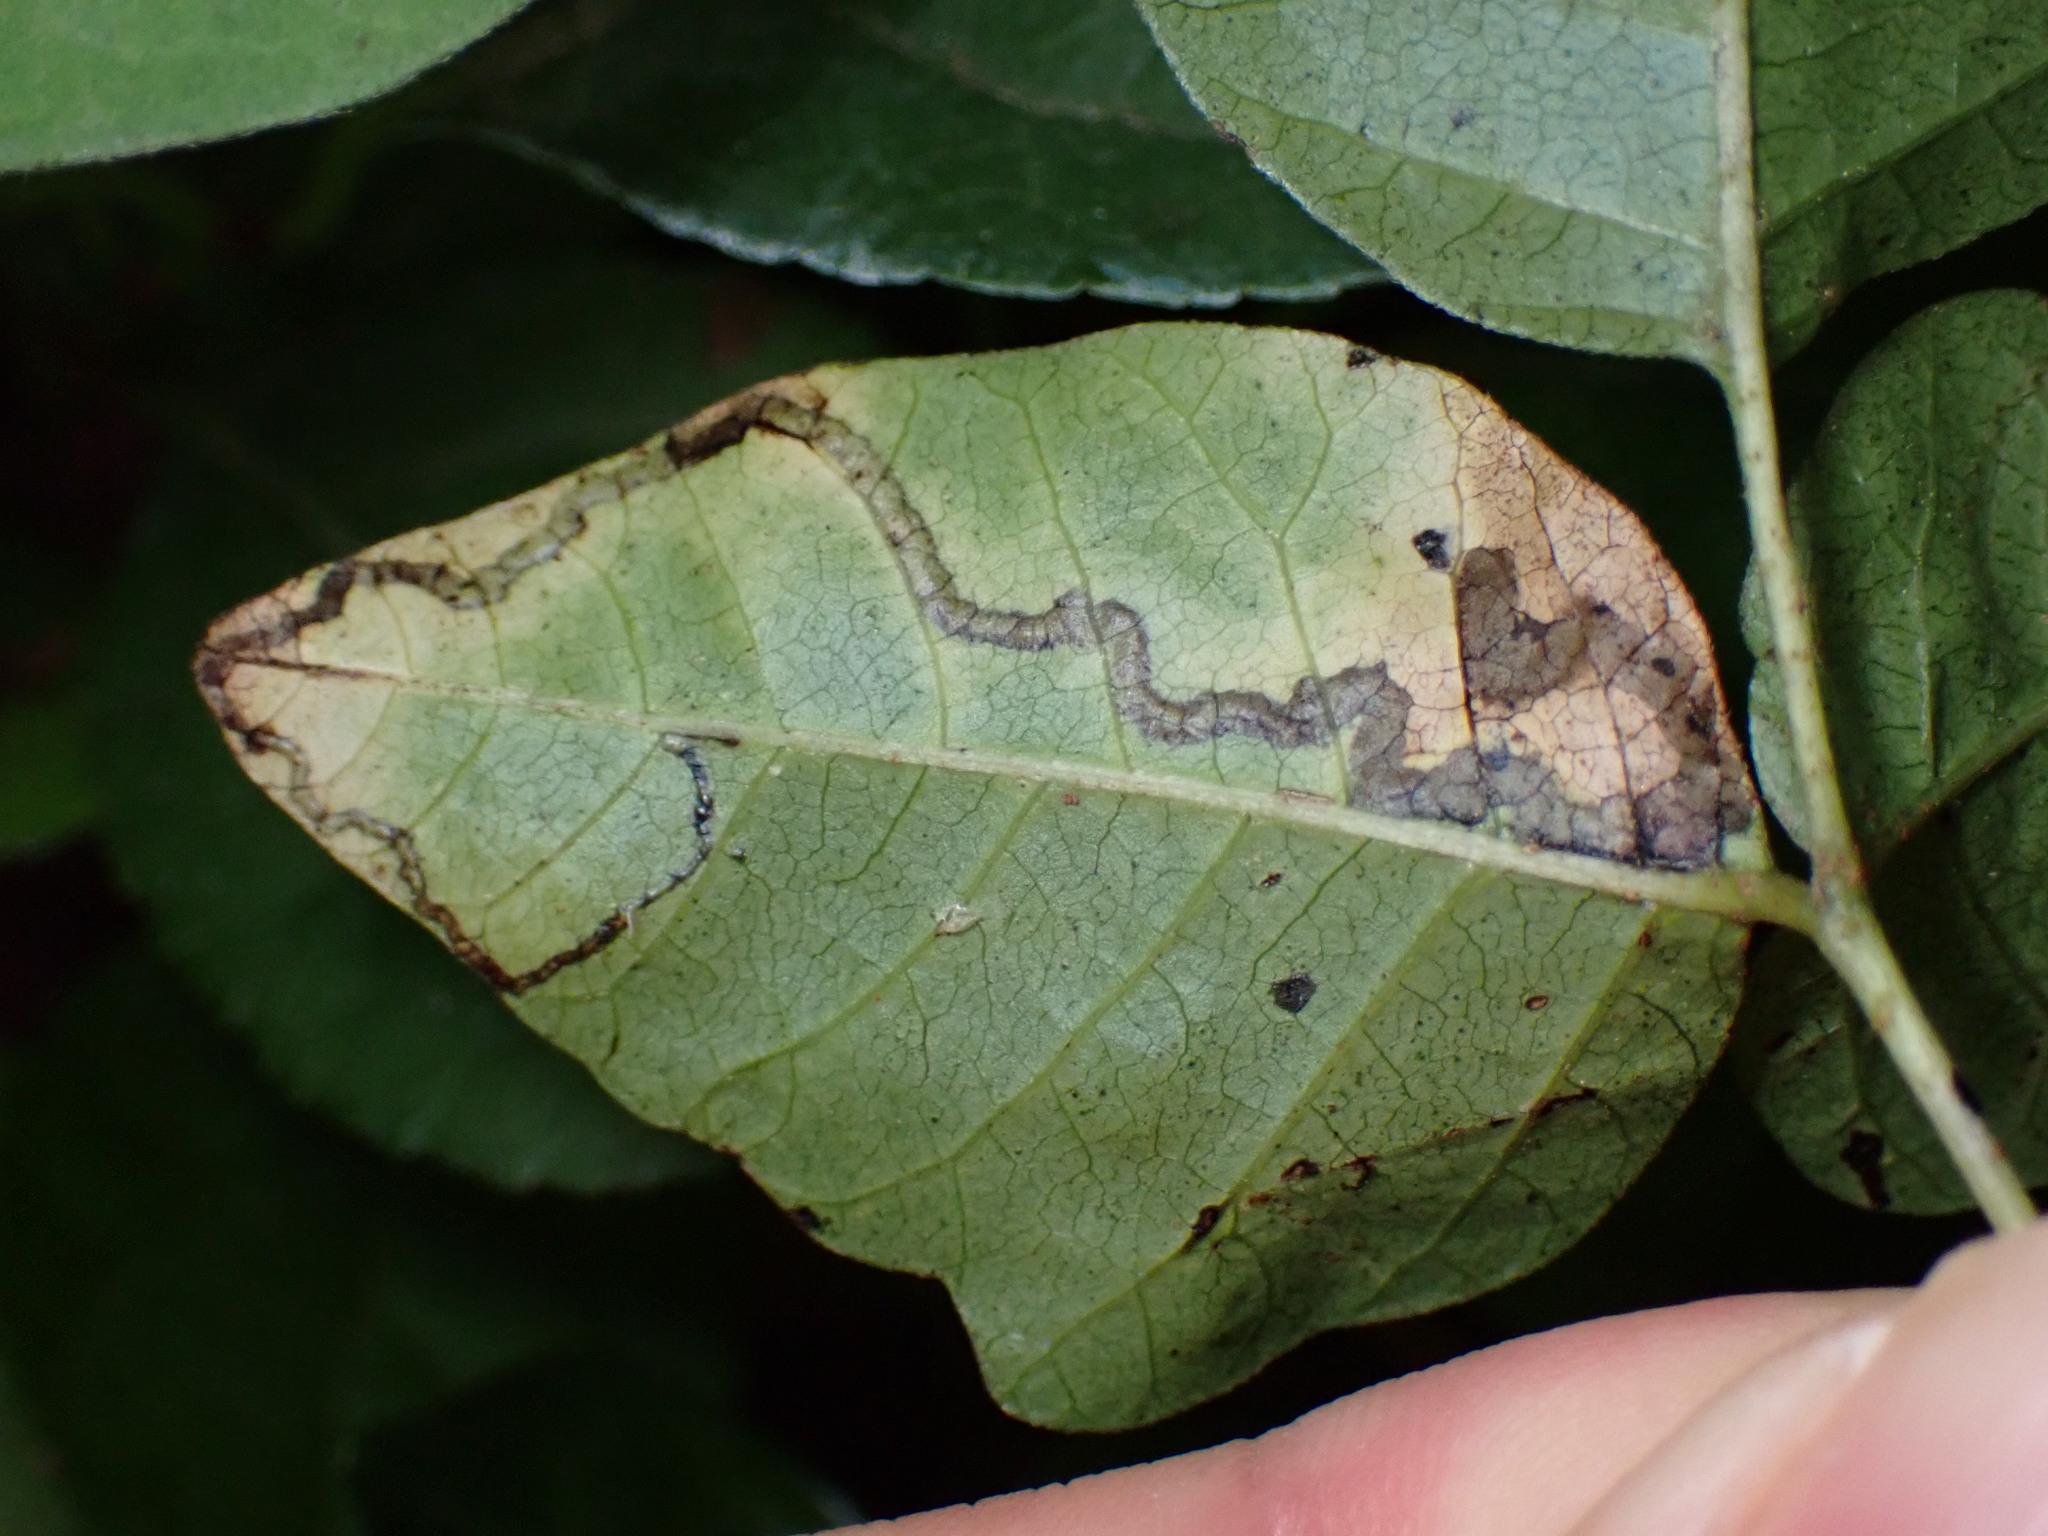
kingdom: Animalia
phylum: Arthropoda
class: Insecta
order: Lepidoptera
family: Nepticulidae
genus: Stigmella
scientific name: Stigmella rhoifoliella
